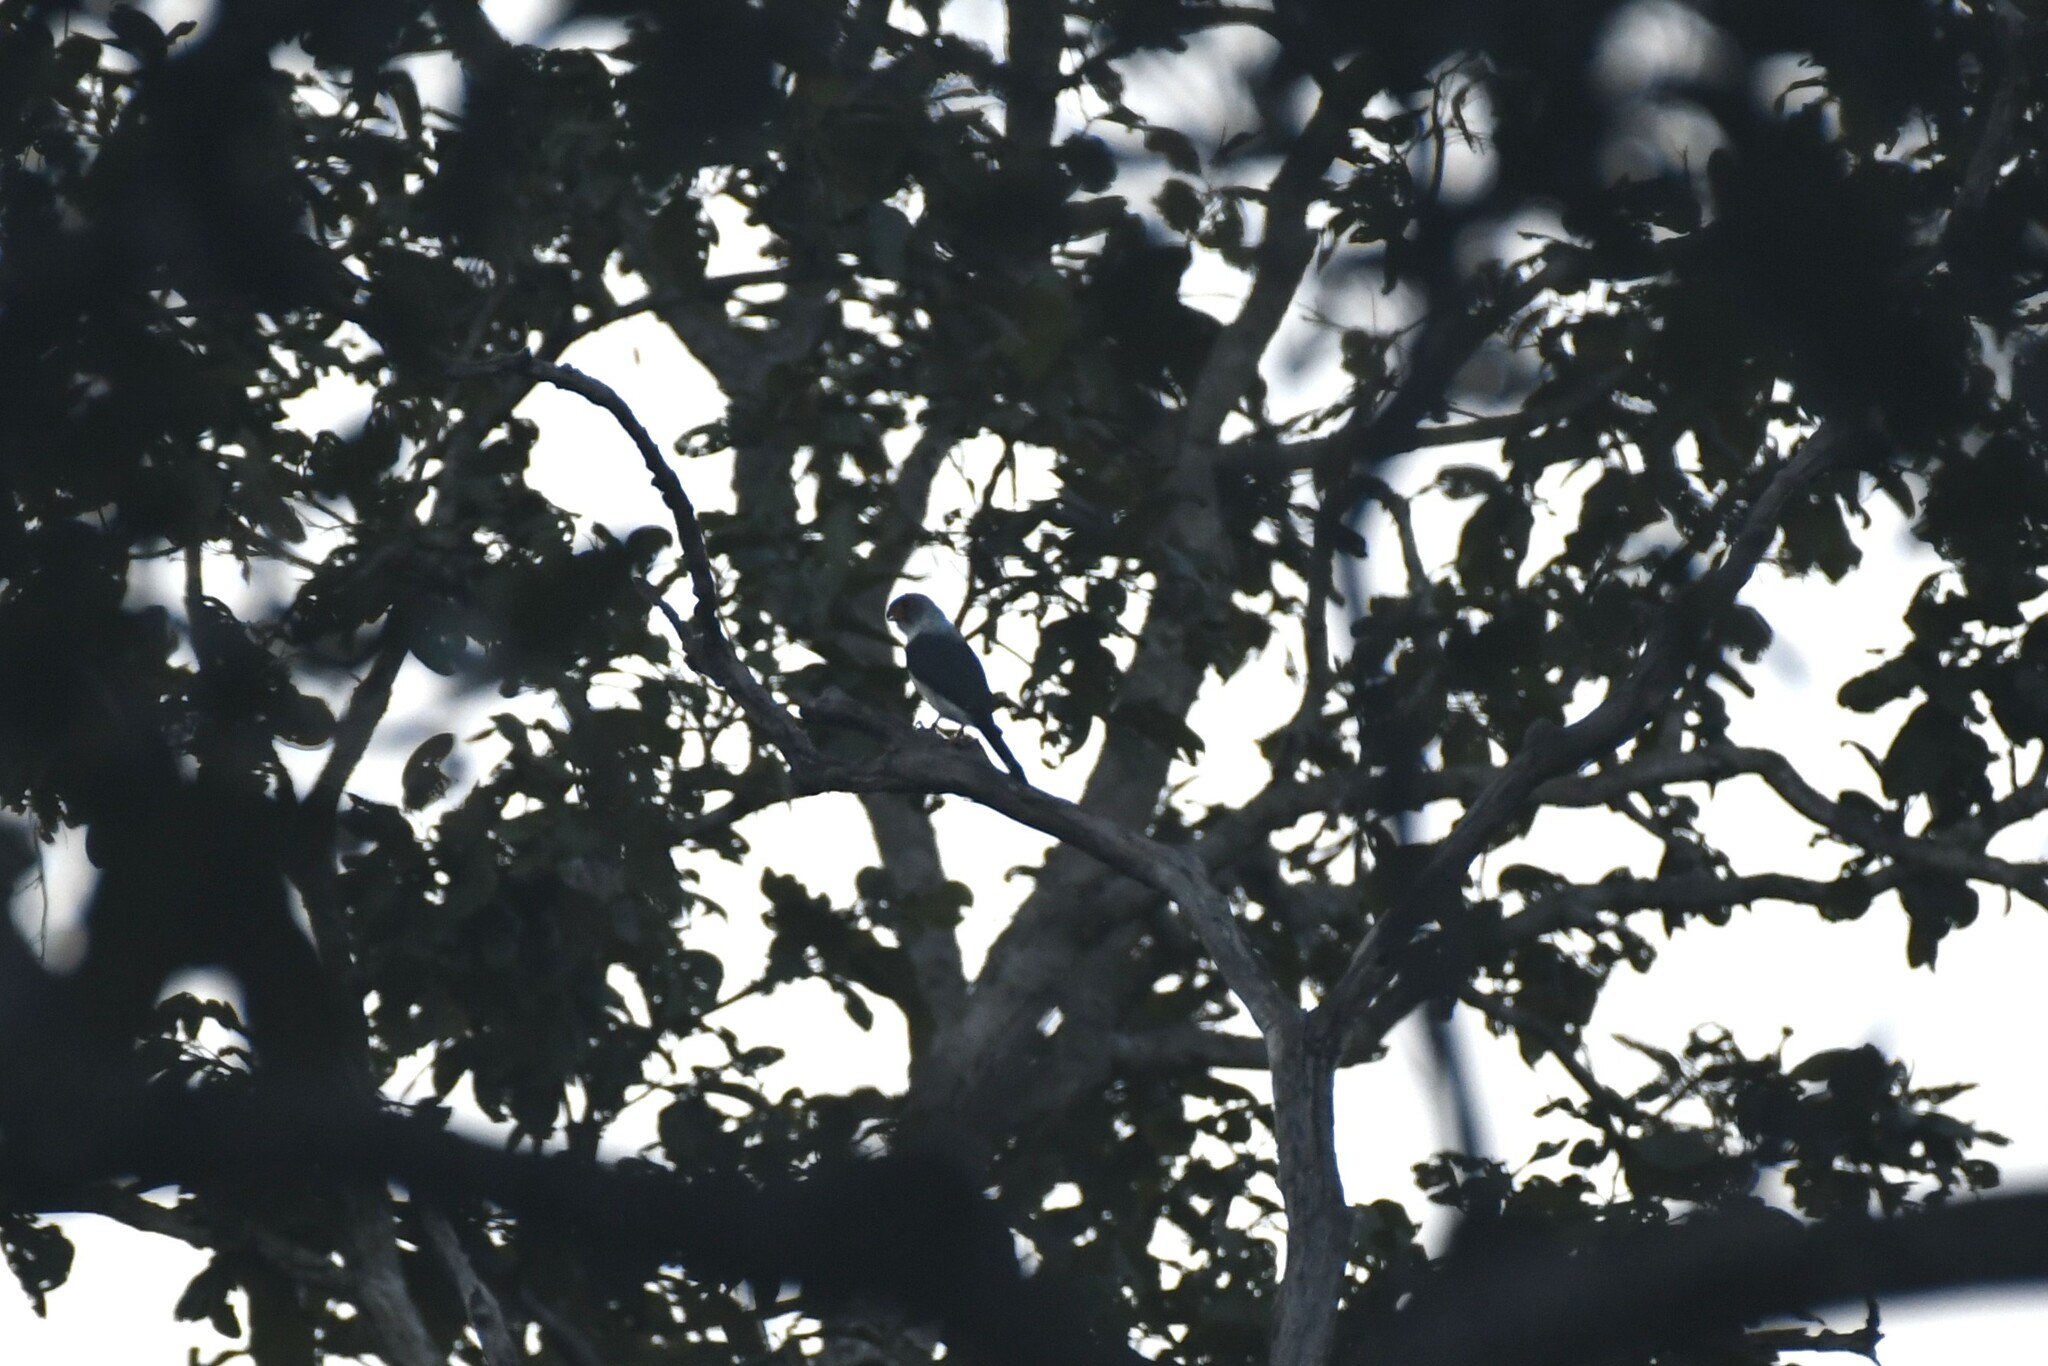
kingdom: Animalia
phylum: Chordata
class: Aves
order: Falconiformes
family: Falconidae
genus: Polihierax
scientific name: Polihierax insignis
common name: White-rumped falcon
